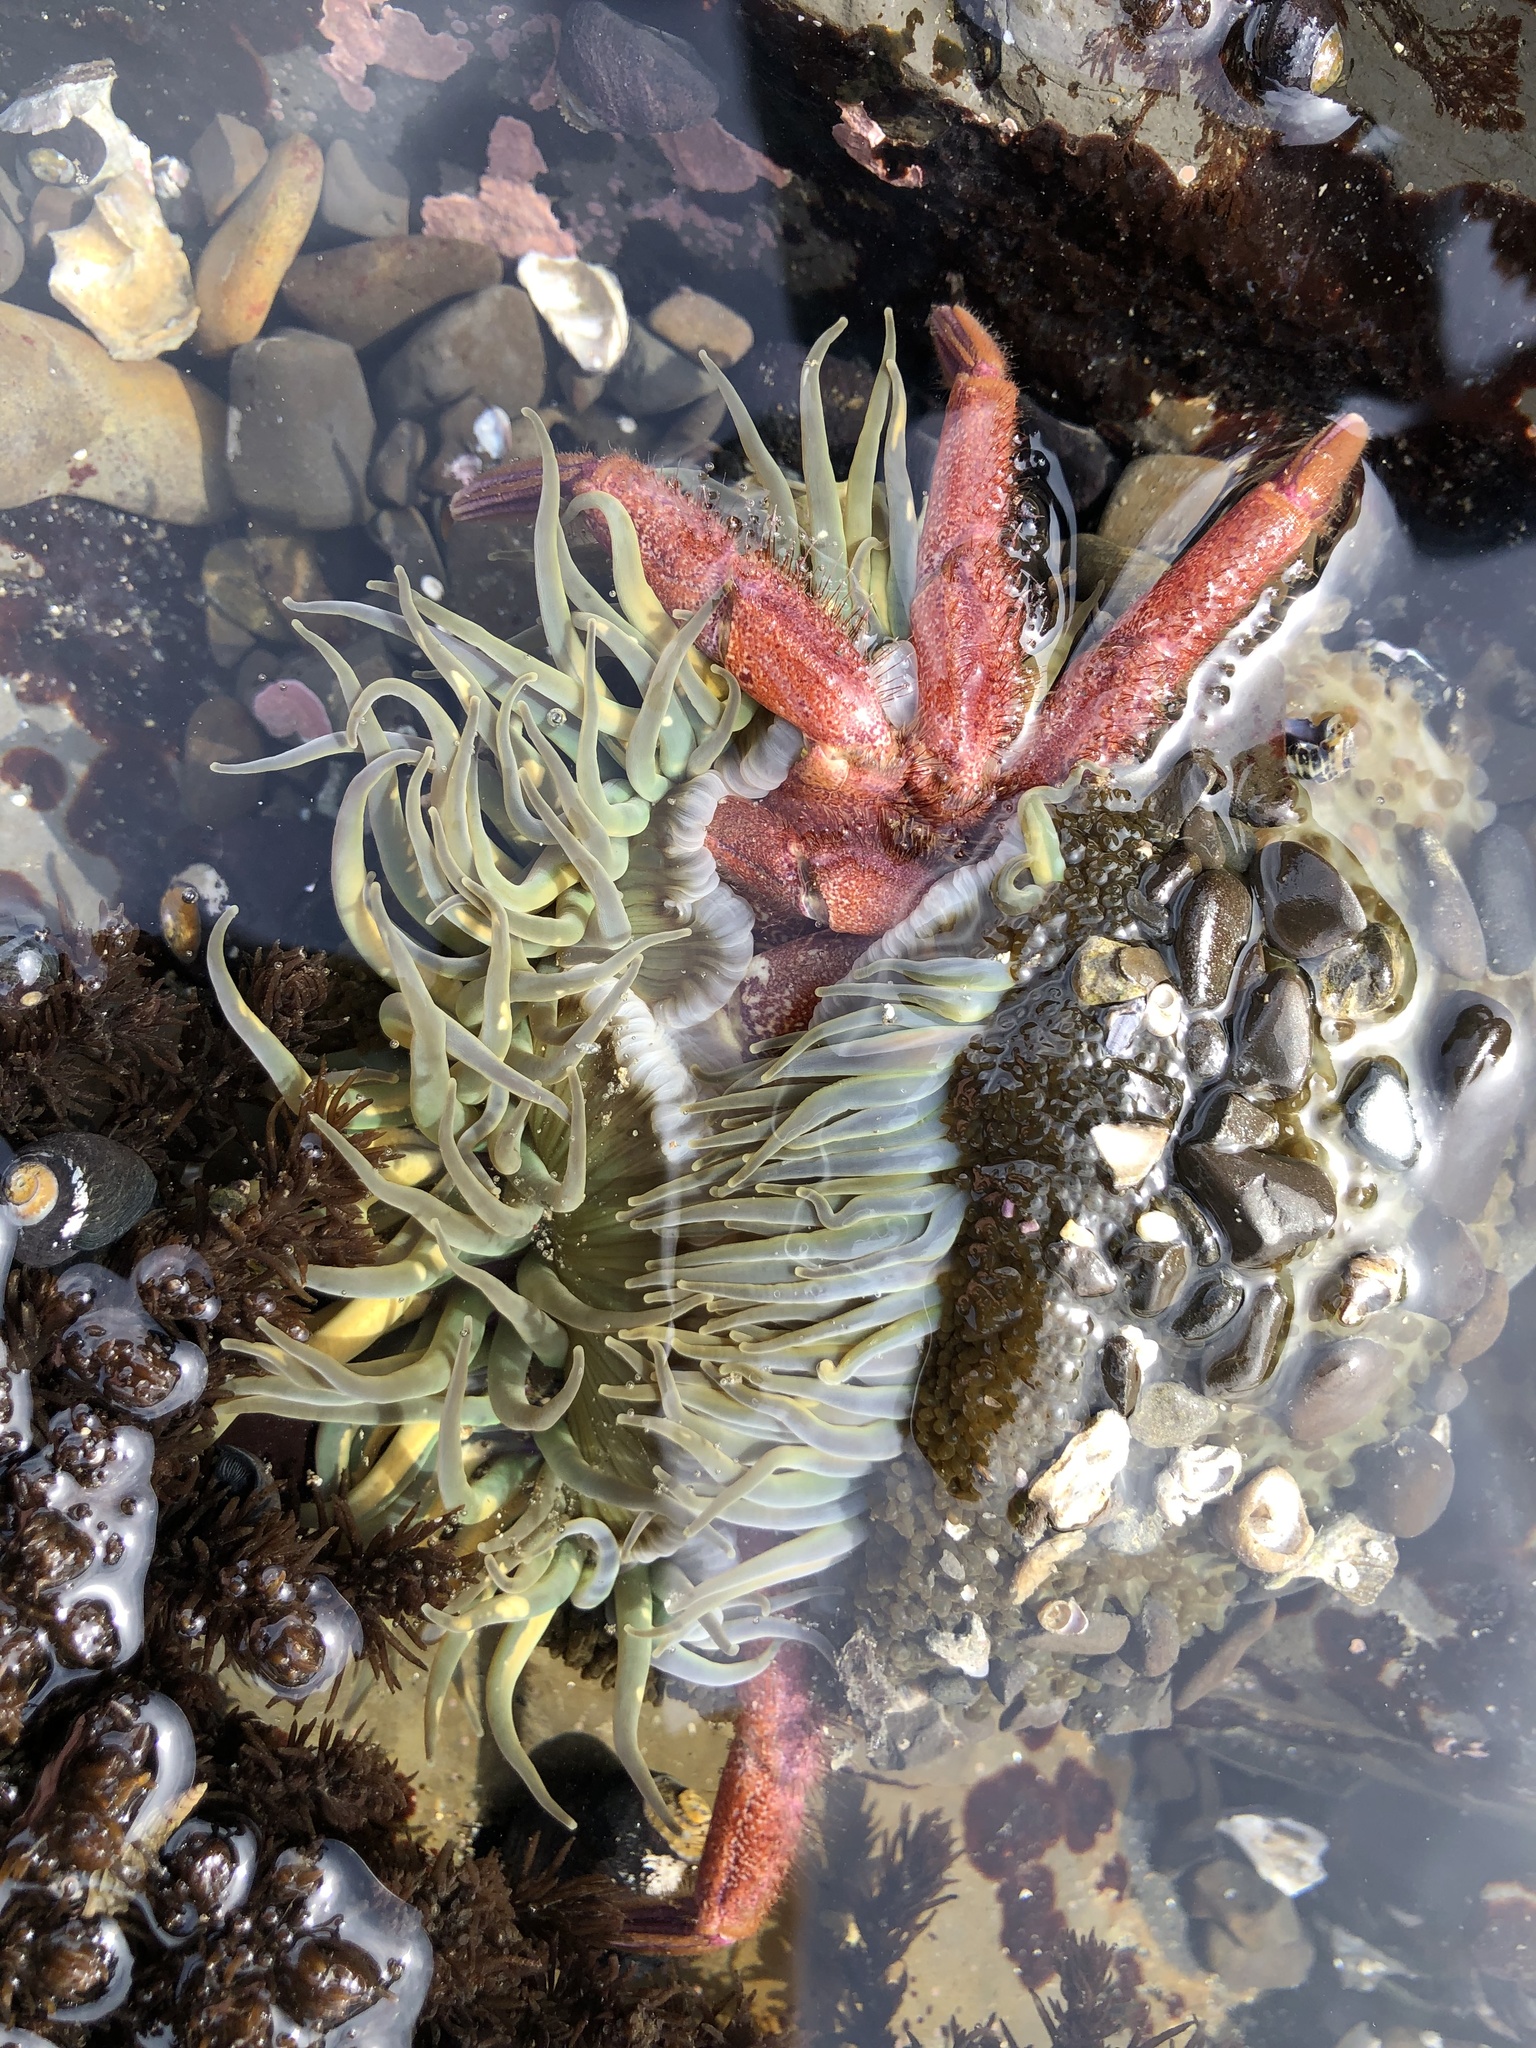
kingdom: Animalia
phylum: Cnidaria
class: Anthozoa
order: Actiniaria
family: Actiniidae
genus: Anthopleura
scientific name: Anthopleura sola
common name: Sun anemone
